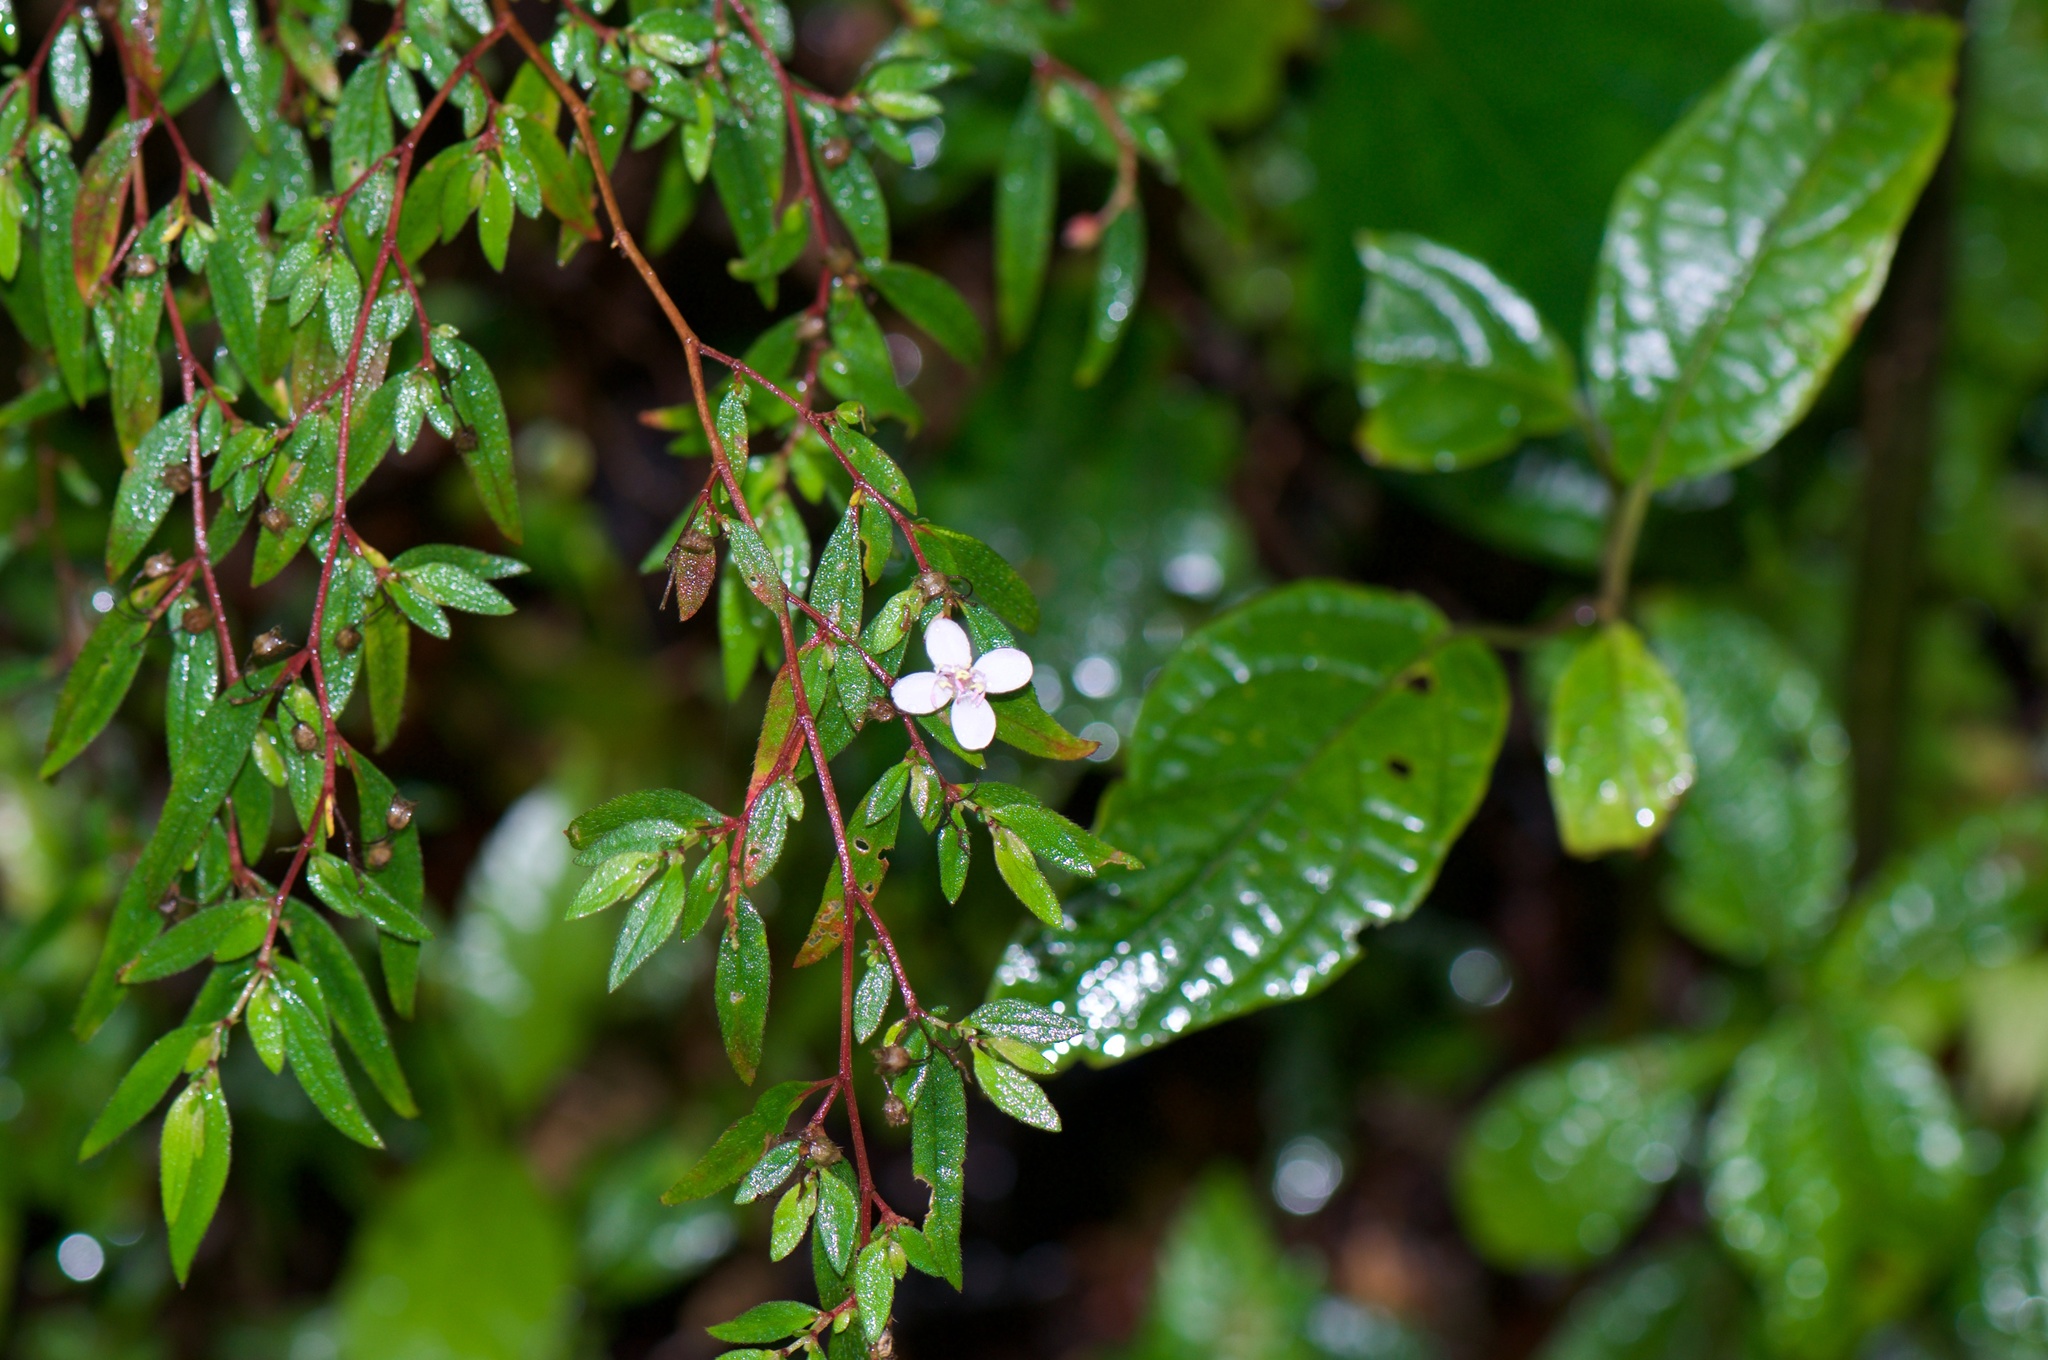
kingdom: Plantae
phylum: Tracheophyta
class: Magnoliopsida
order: Myrtales
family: Melastomataceae
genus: Centradenia
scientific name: Centradenia inaequilateralis
